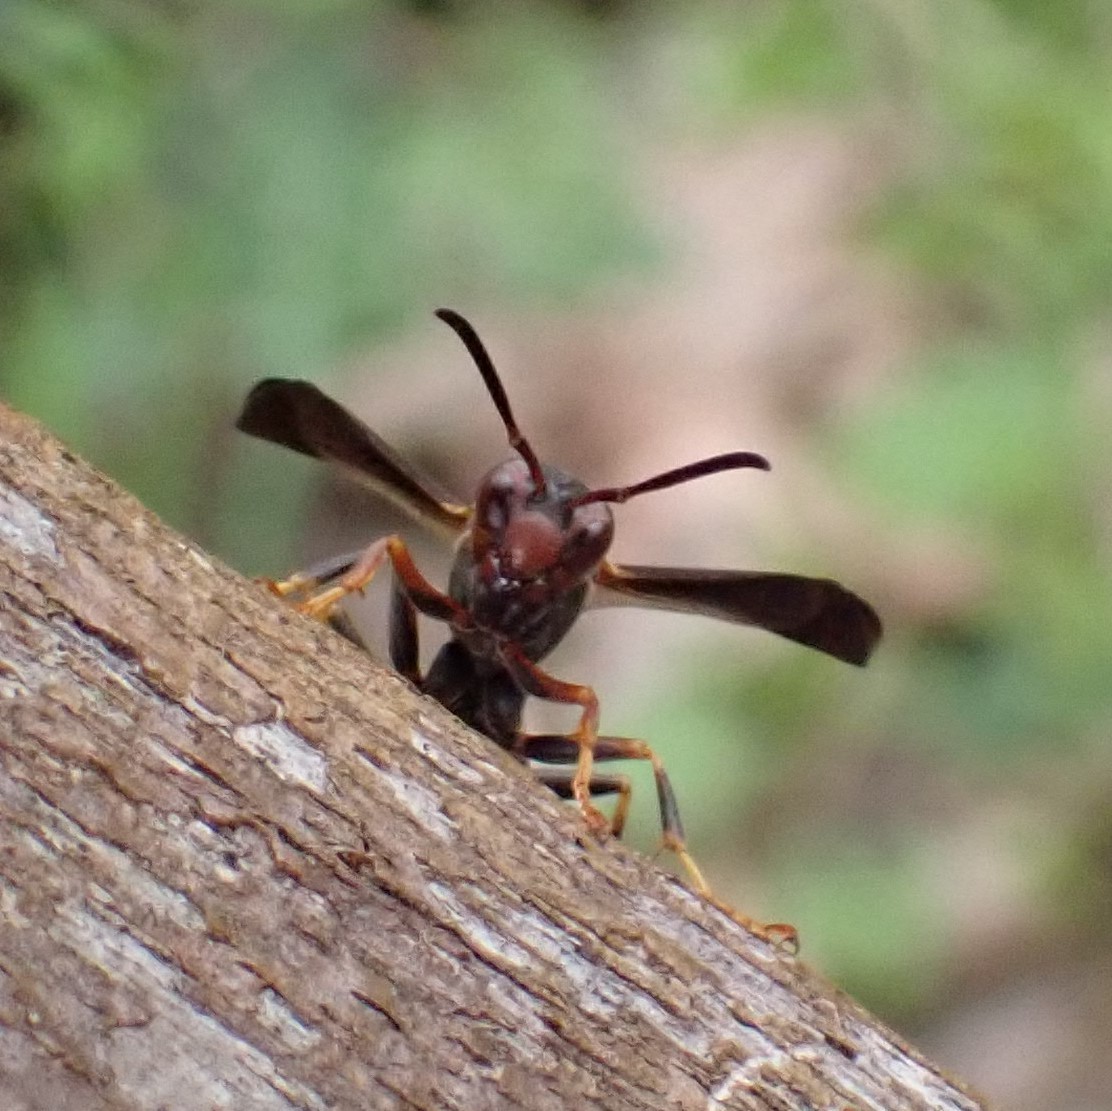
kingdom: Animalia
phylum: Arthropoda
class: Insecta
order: Hymenoptera
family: Vespidae
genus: Fuscopolistes
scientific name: Fuscopolistes
